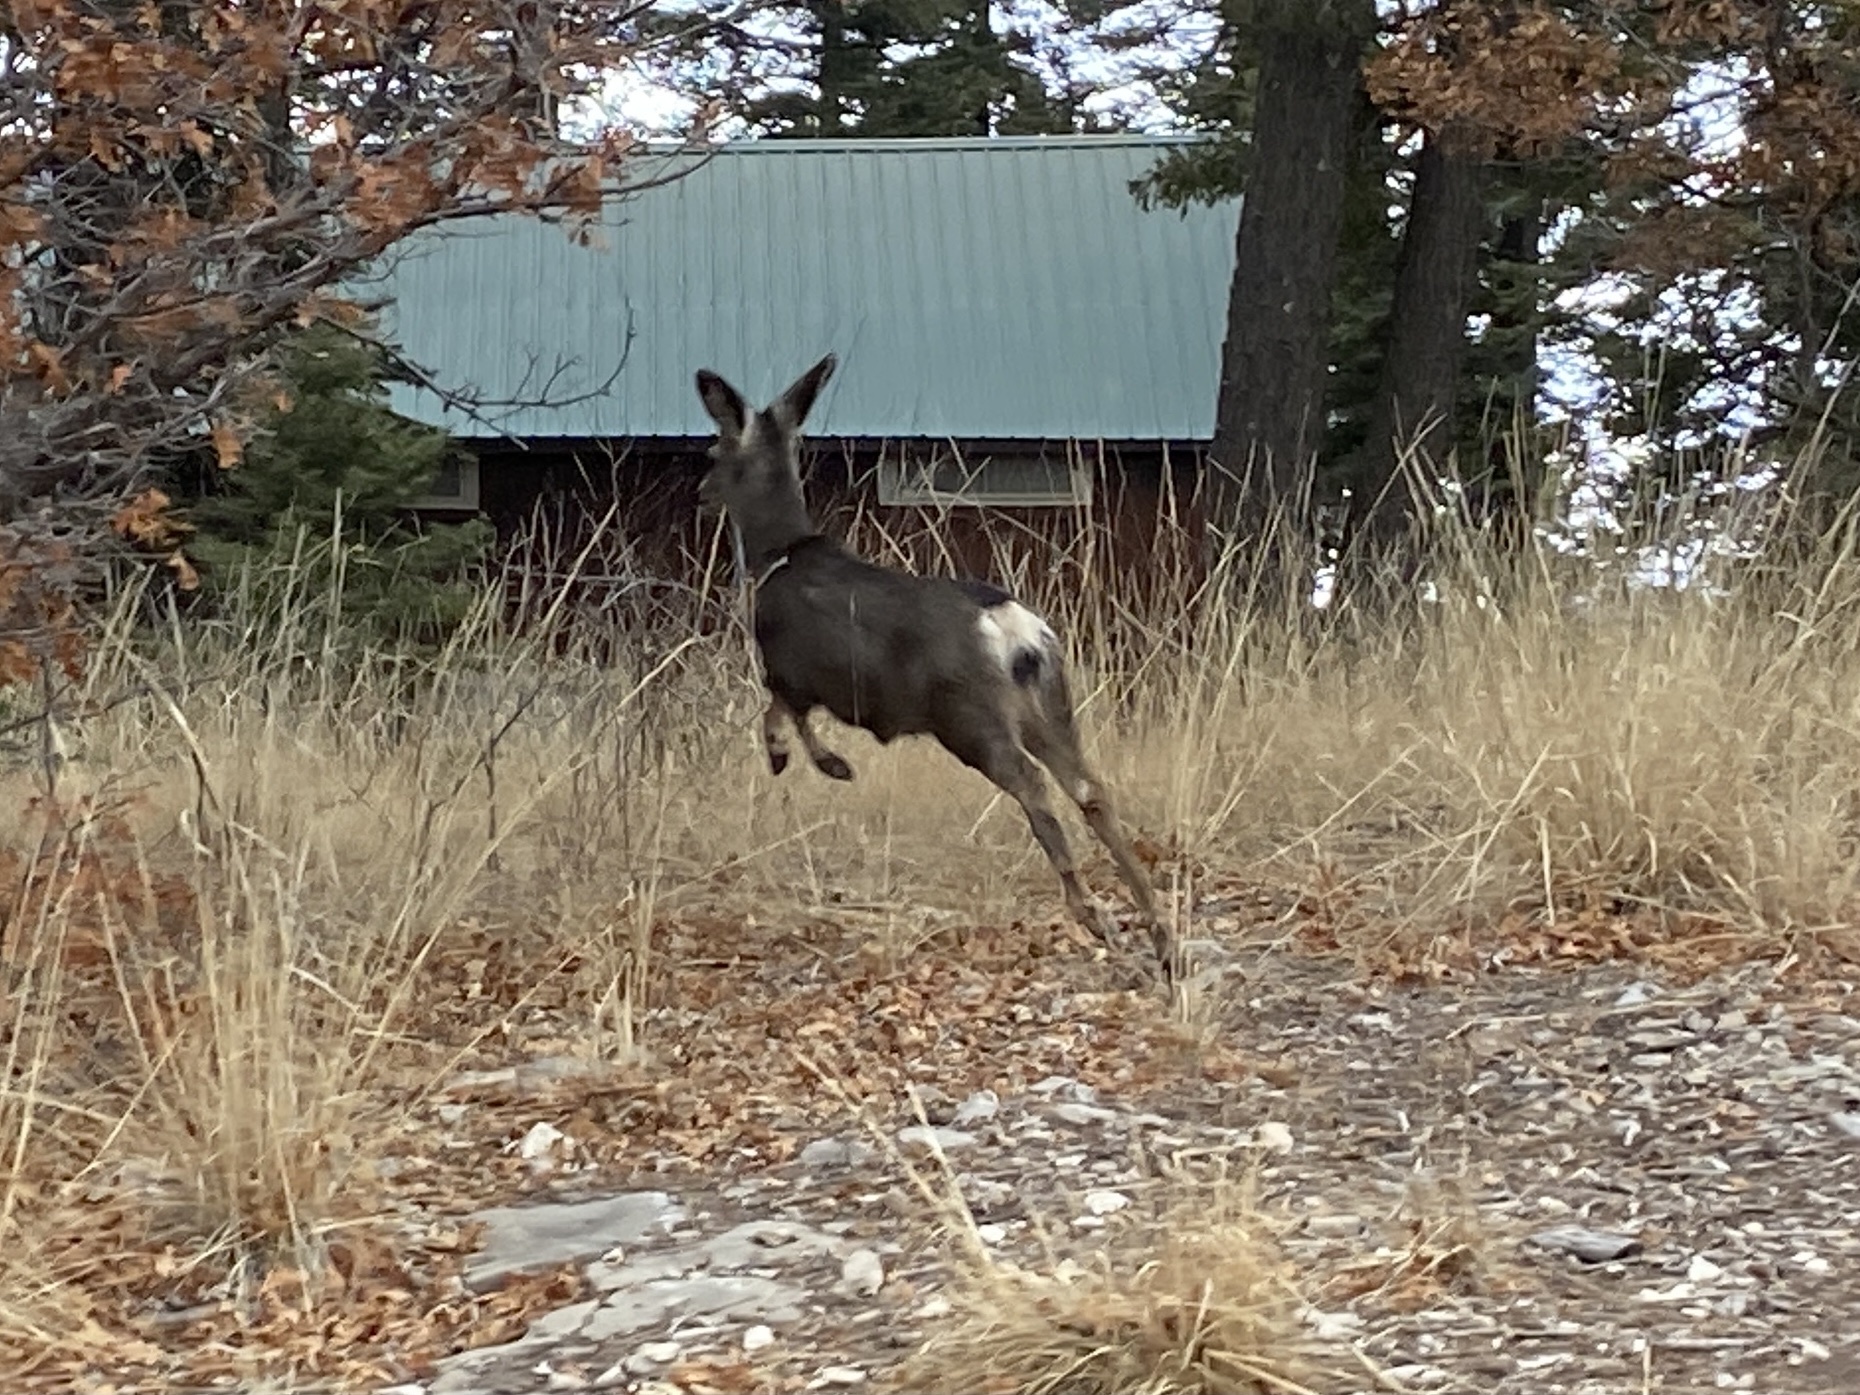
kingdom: Animalia
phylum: Chordata
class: Mammalia
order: Artiodactyla
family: Cervidae
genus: Odocoileus
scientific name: Odocoileus hemionus
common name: Mule deer
